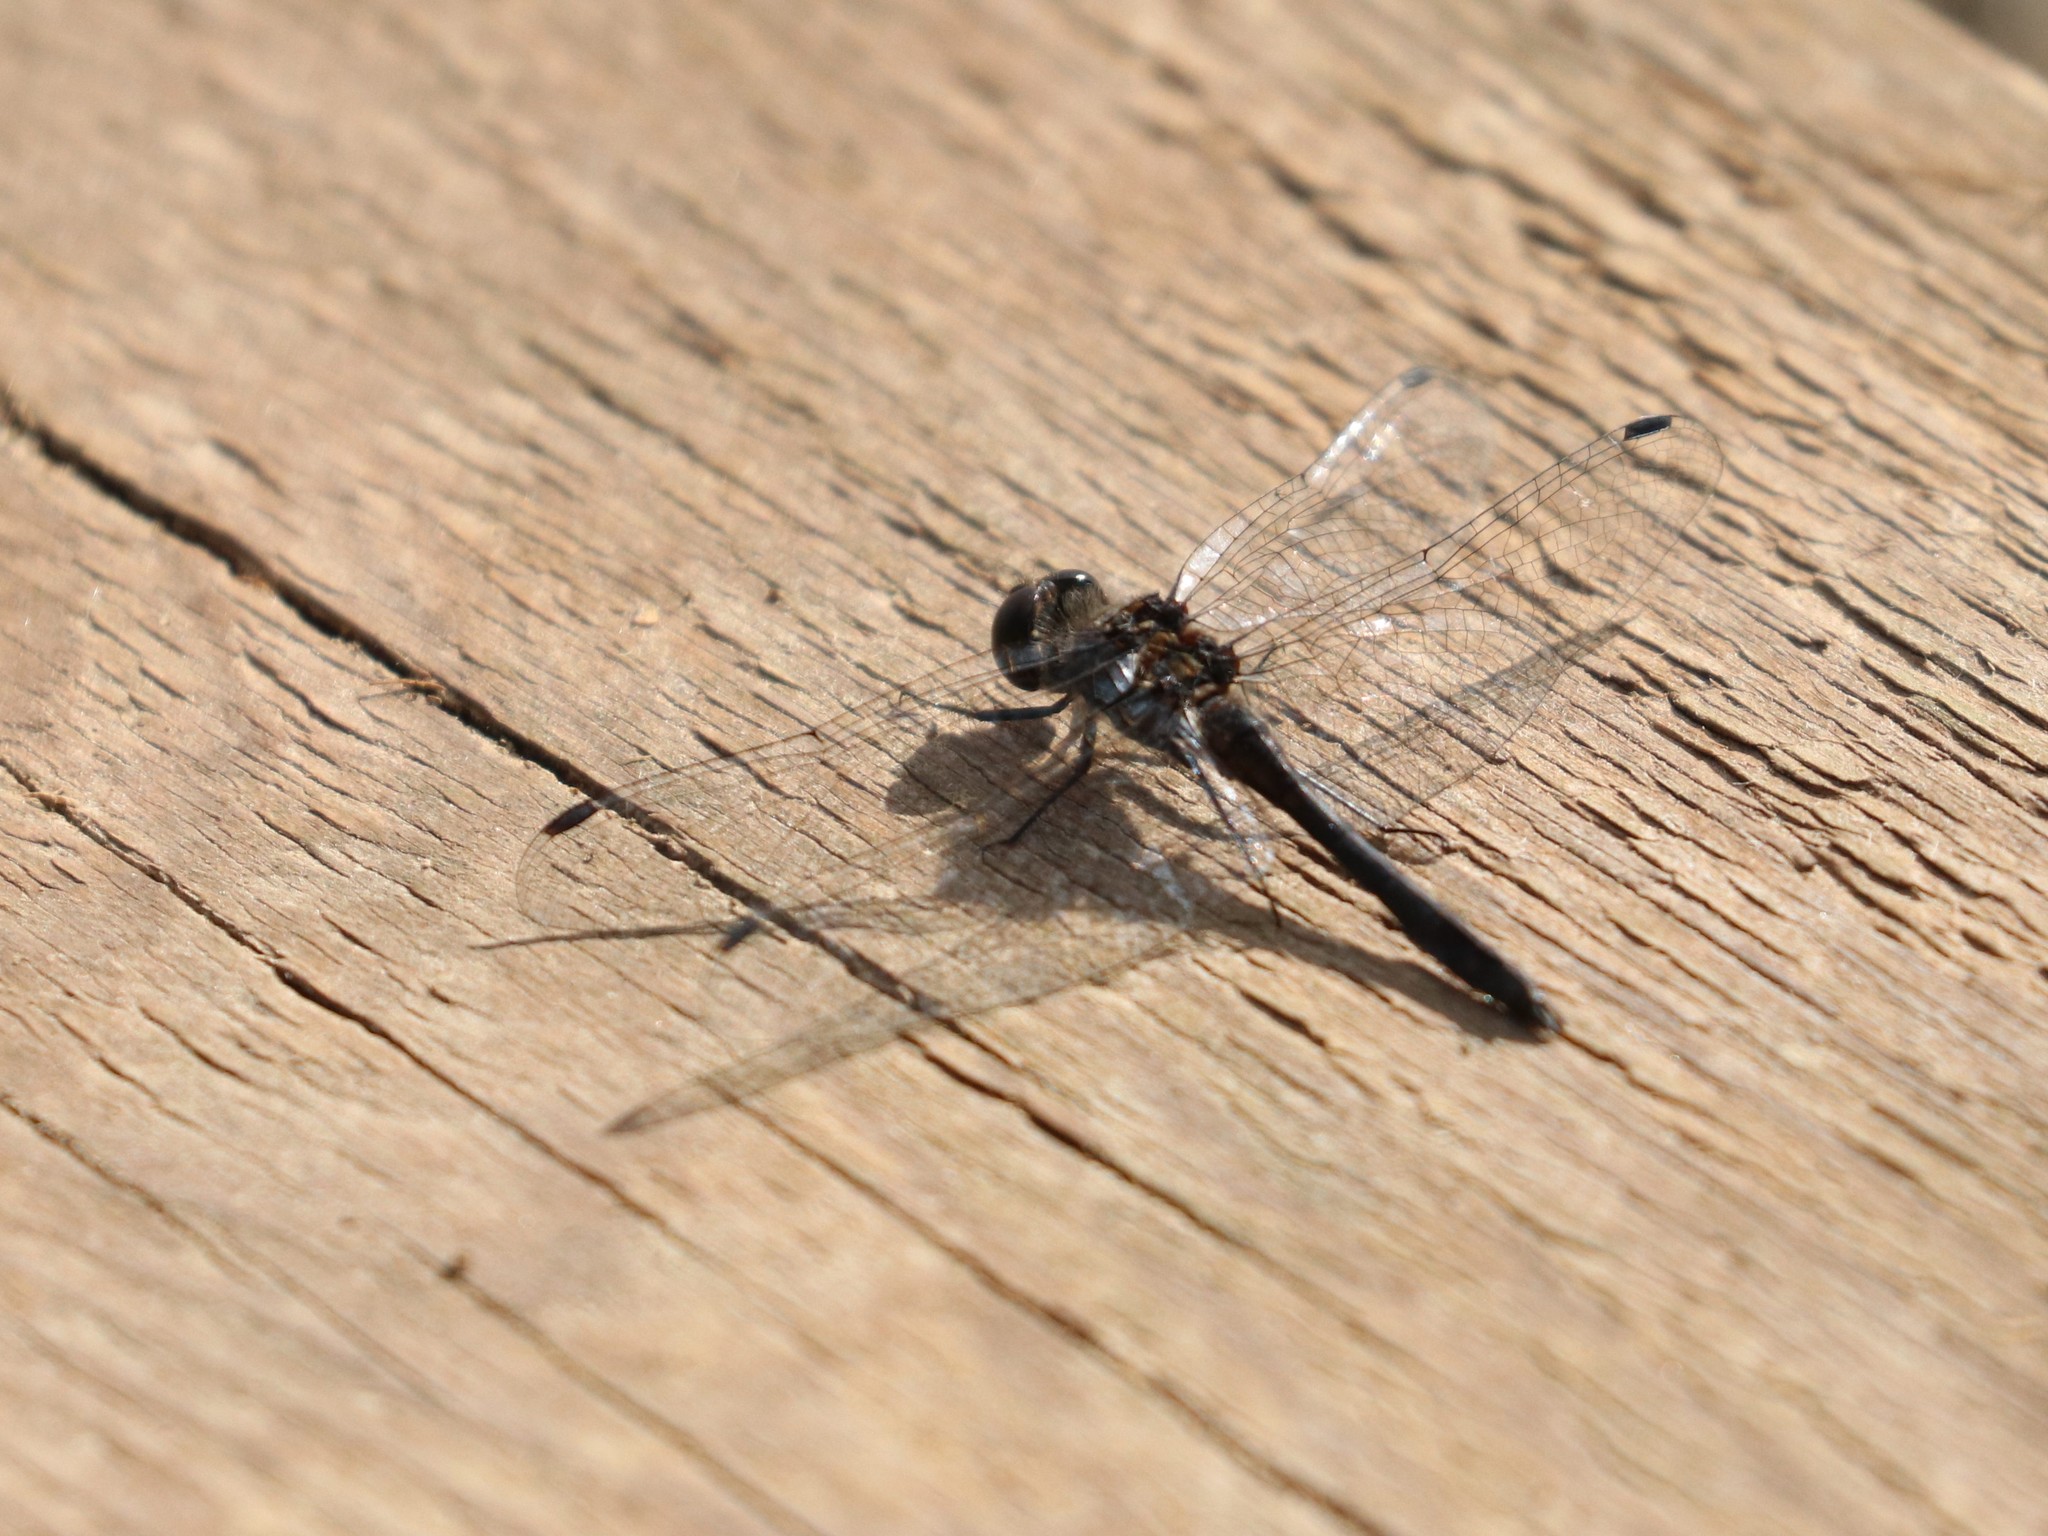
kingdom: Animalia
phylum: Arthropoda
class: Insecta
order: Odonata
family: Libellulidae
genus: Sympetrum
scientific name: Sympetrum danae
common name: Black darter
